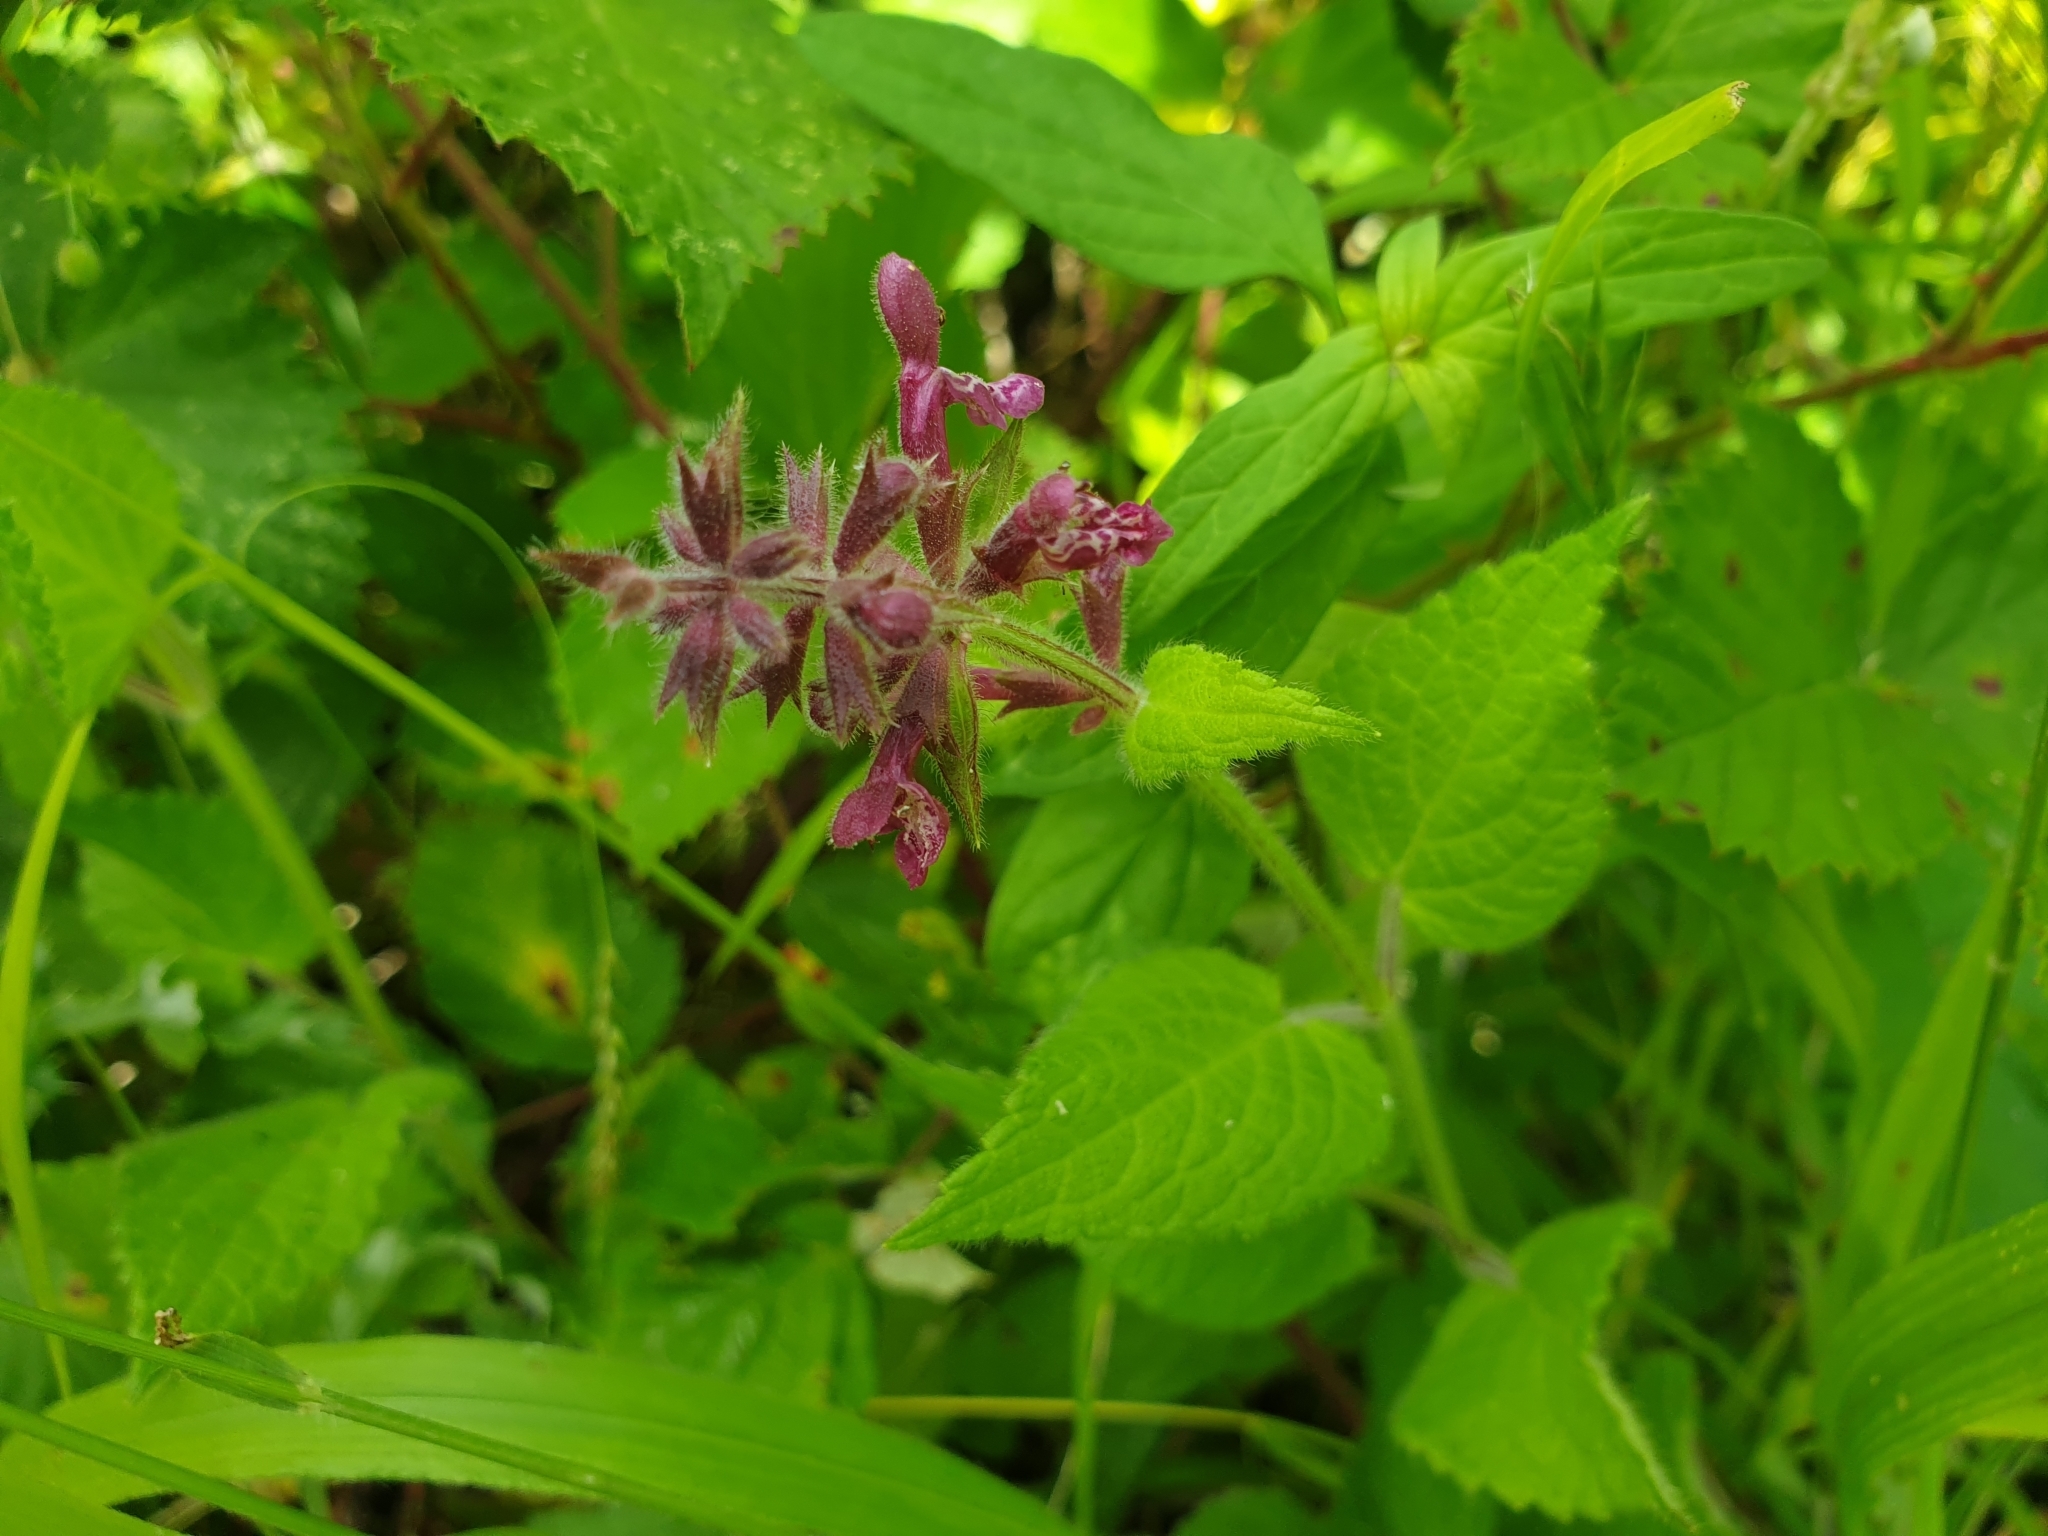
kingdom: Plantae
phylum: Tracheophyta
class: Magnoliopsida
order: Lamiales
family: Lamiaceae
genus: Stachys
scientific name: Stachys sylvatica
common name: Hedge woundwort
